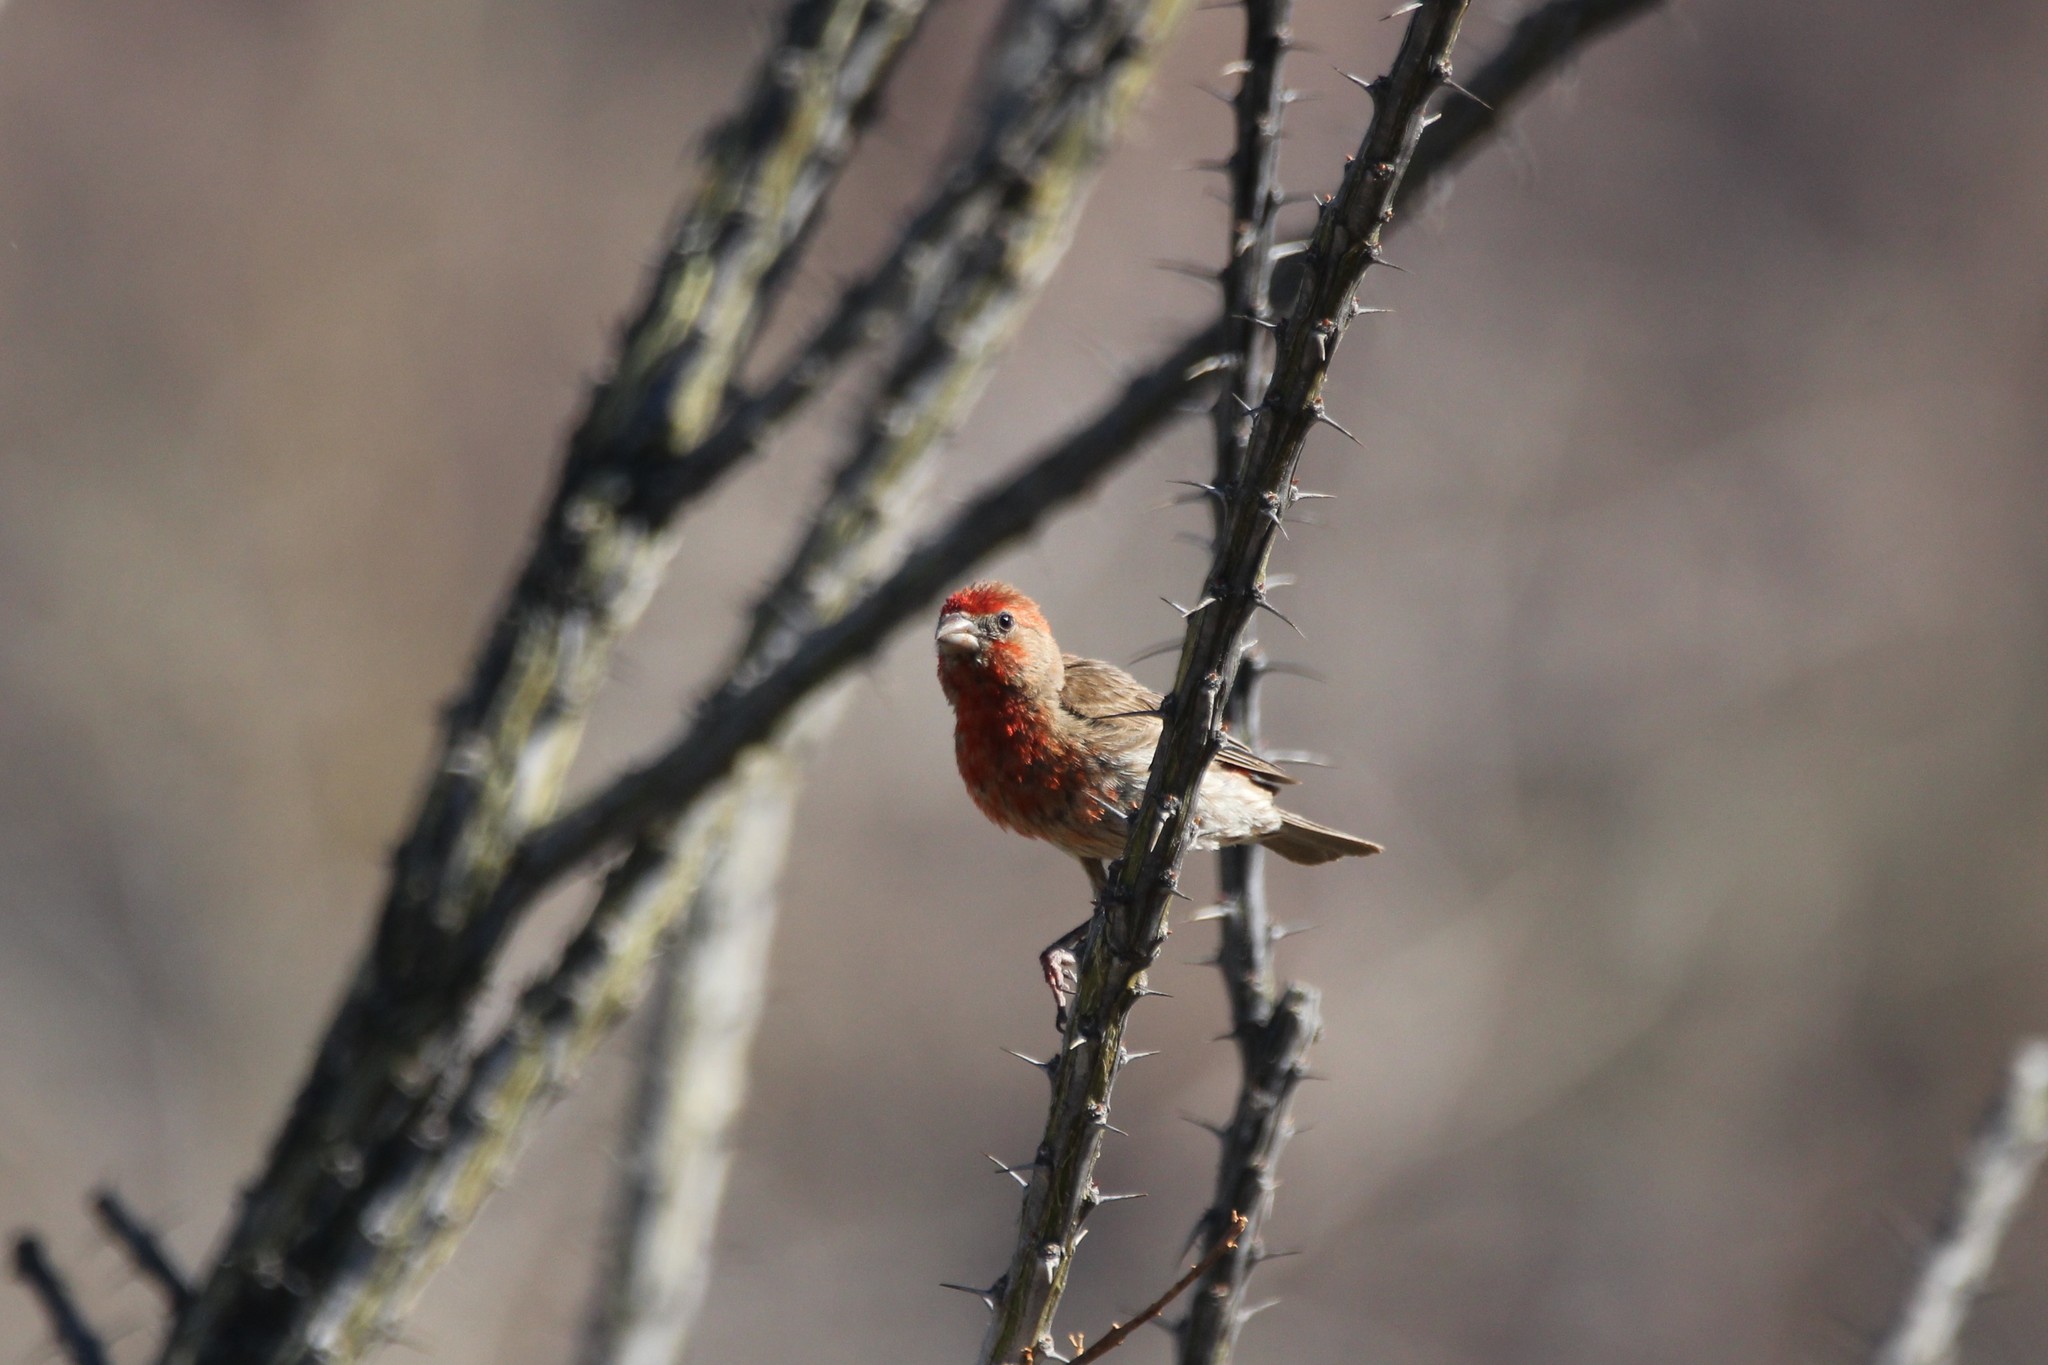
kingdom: Animalia
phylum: Chordata
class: Aves
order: Passeriformes
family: Fringillidae
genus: Haemorhous
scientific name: Haemorhous mexicanus
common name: House finch
